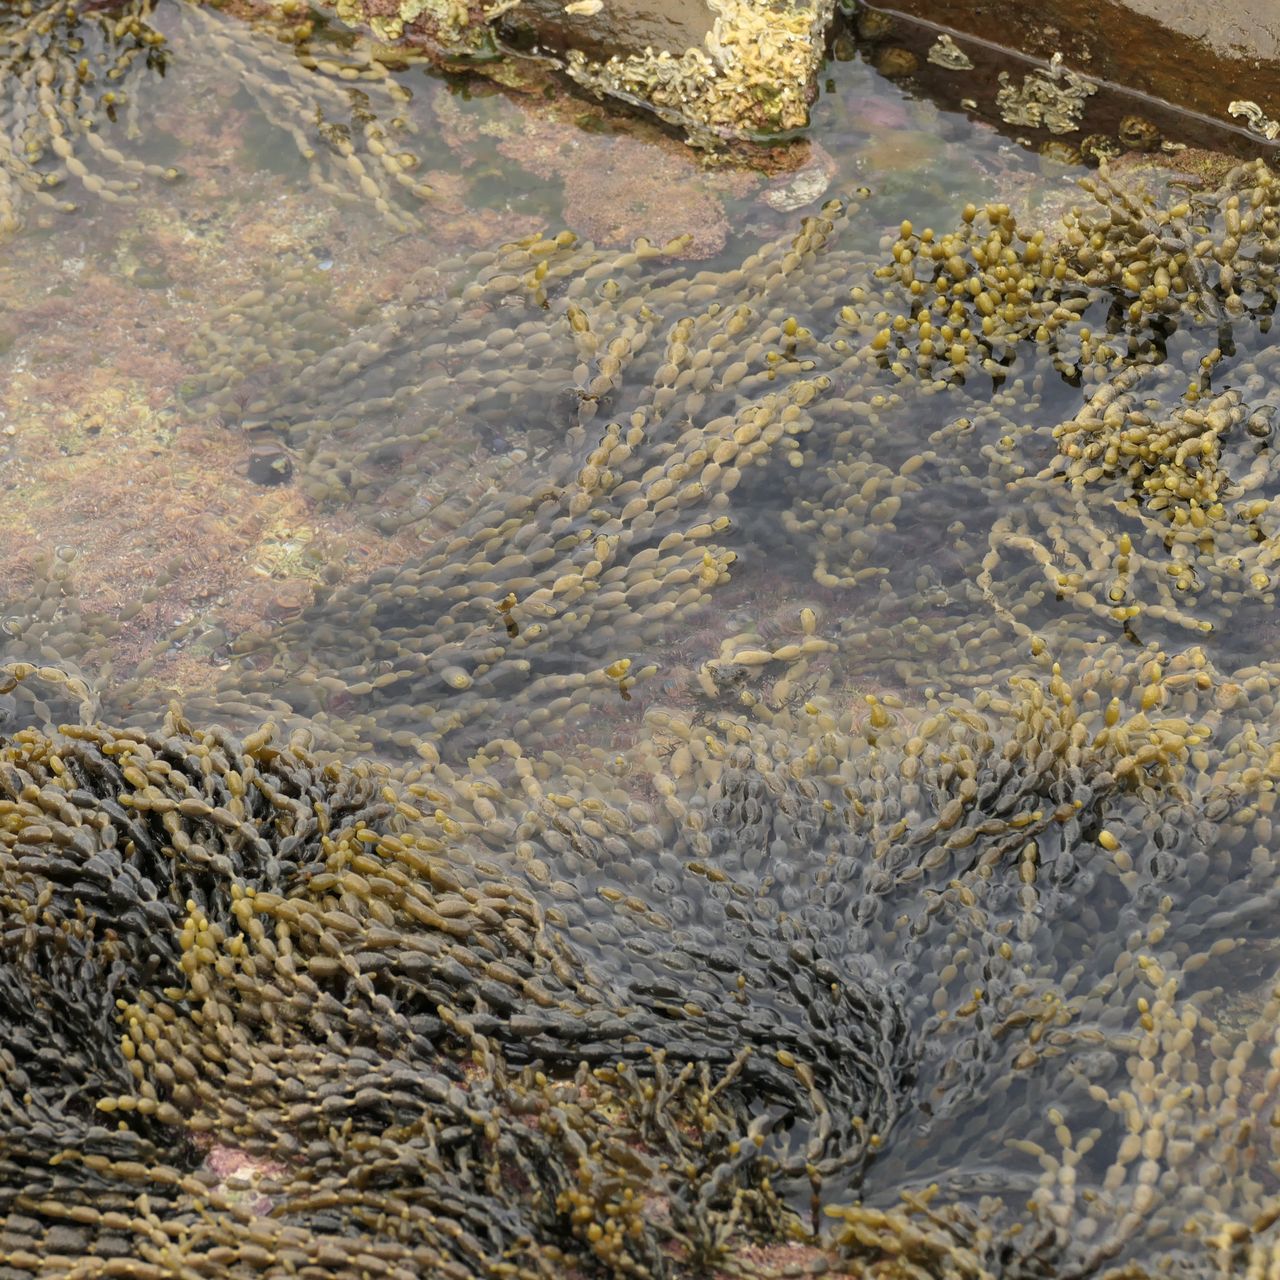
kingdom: Chromista
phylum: Ochrophyta
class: Phaeophyceae
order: Fucales
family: Hormosiraceae
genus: Hormosira
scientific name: Hormosira banksii
